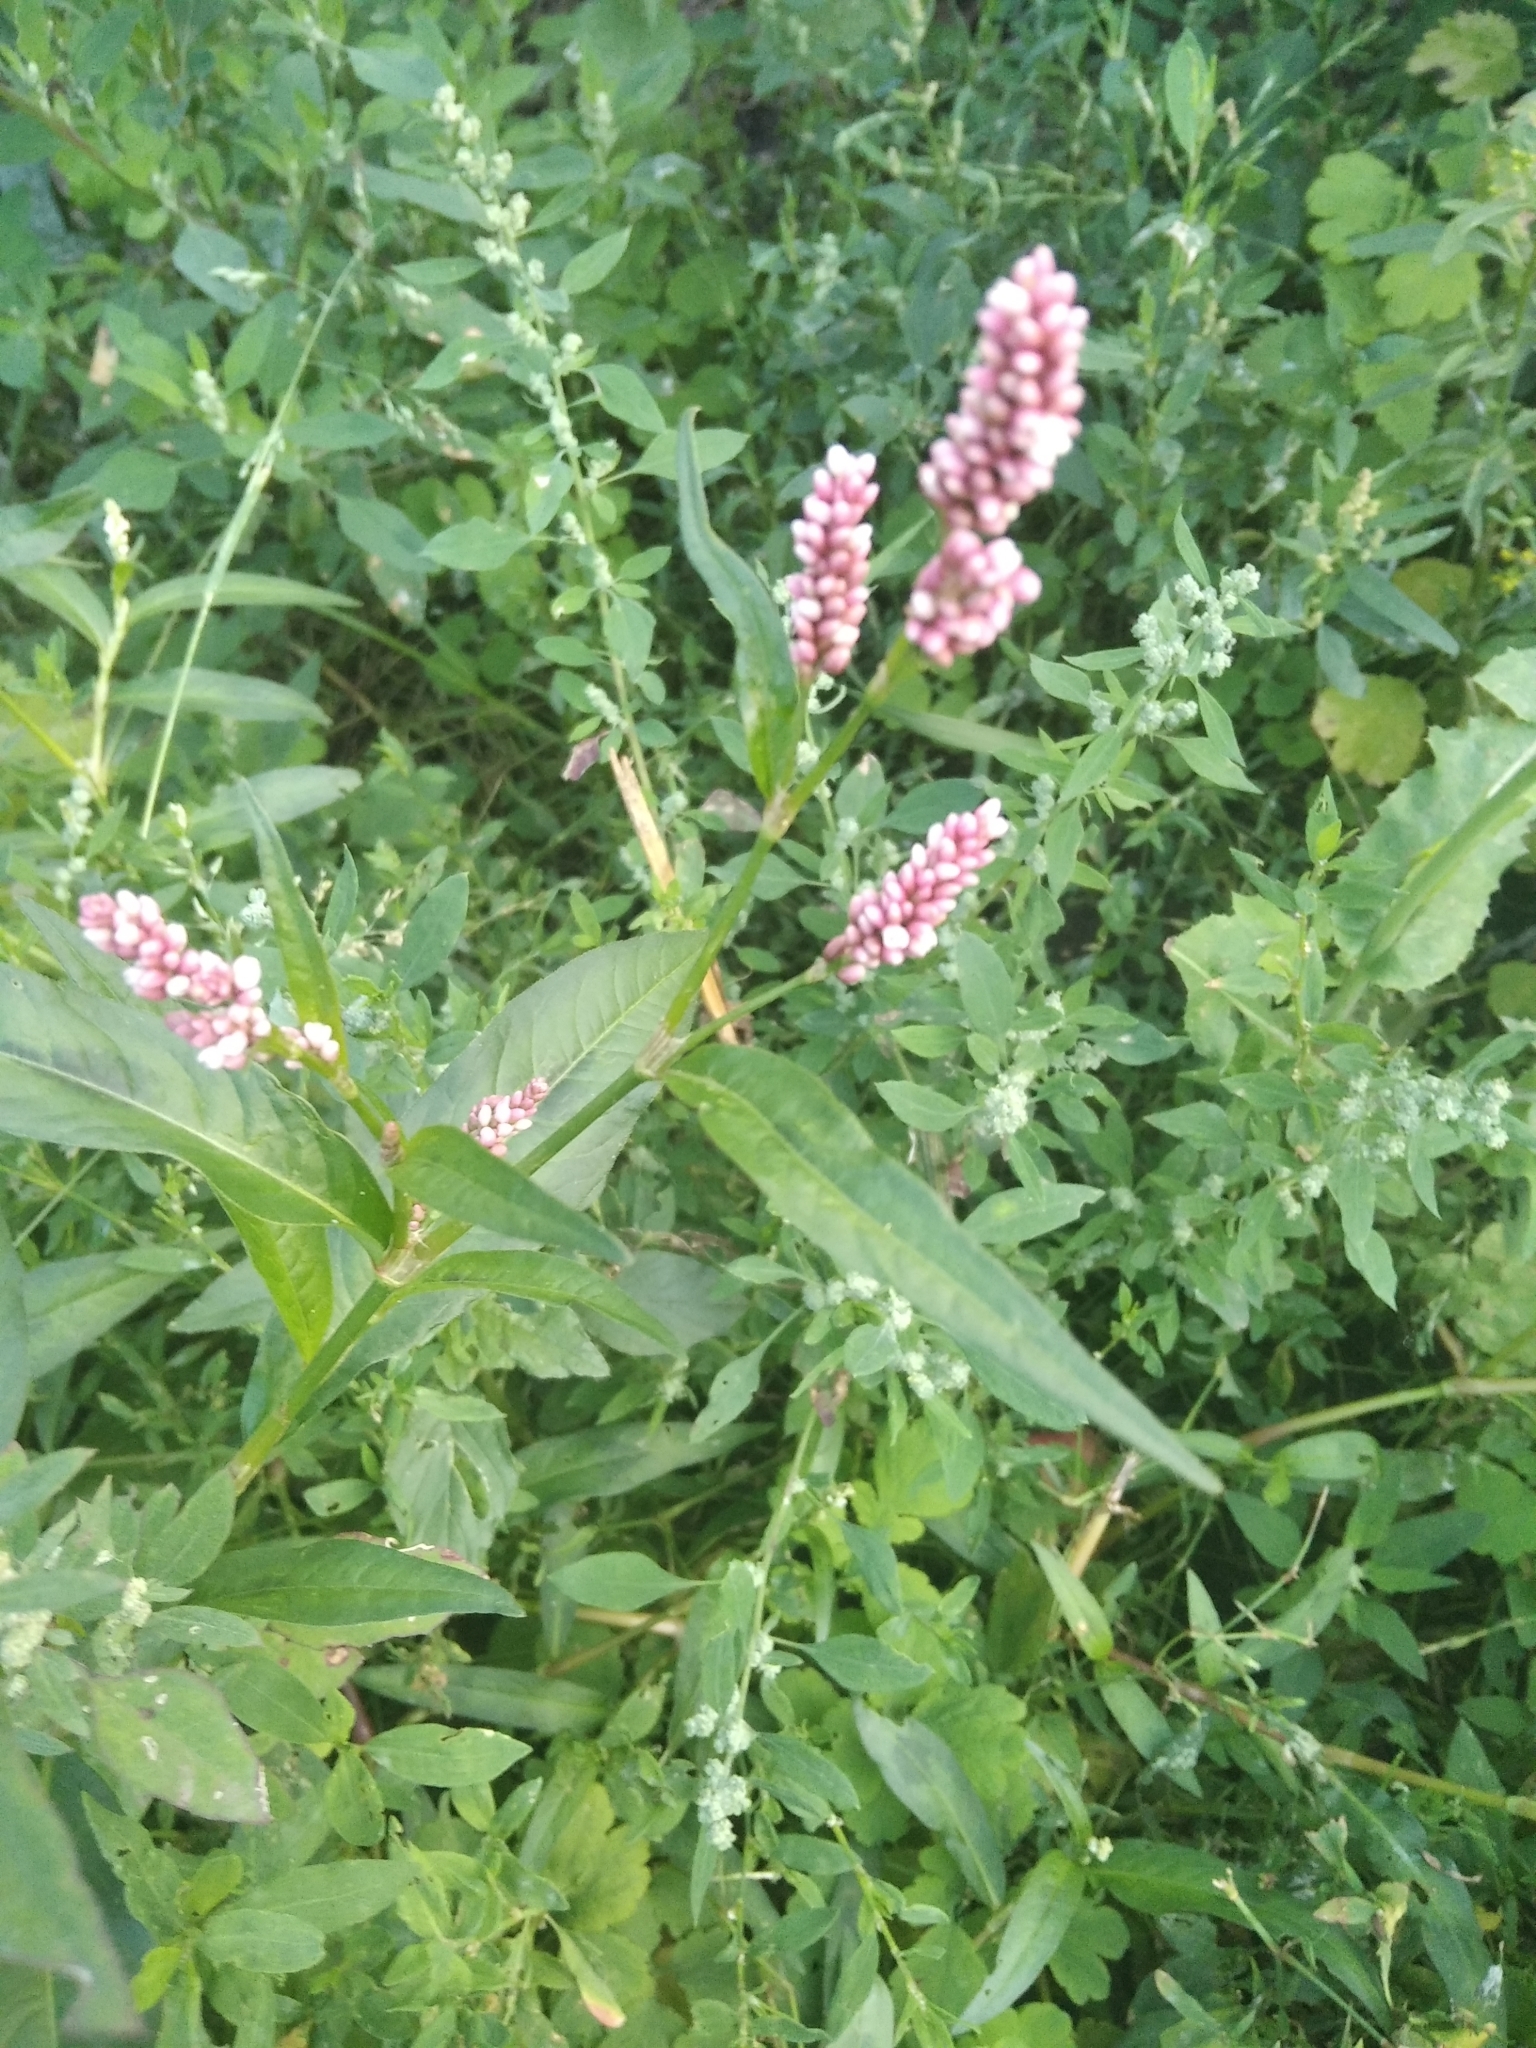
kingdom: Plantae
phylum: Tracheophyta
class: Magnoliopsida
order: Caryophyllales
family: Polygonaceae
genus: Persicaria
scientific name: Persicaria maculosa
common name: Redshank
